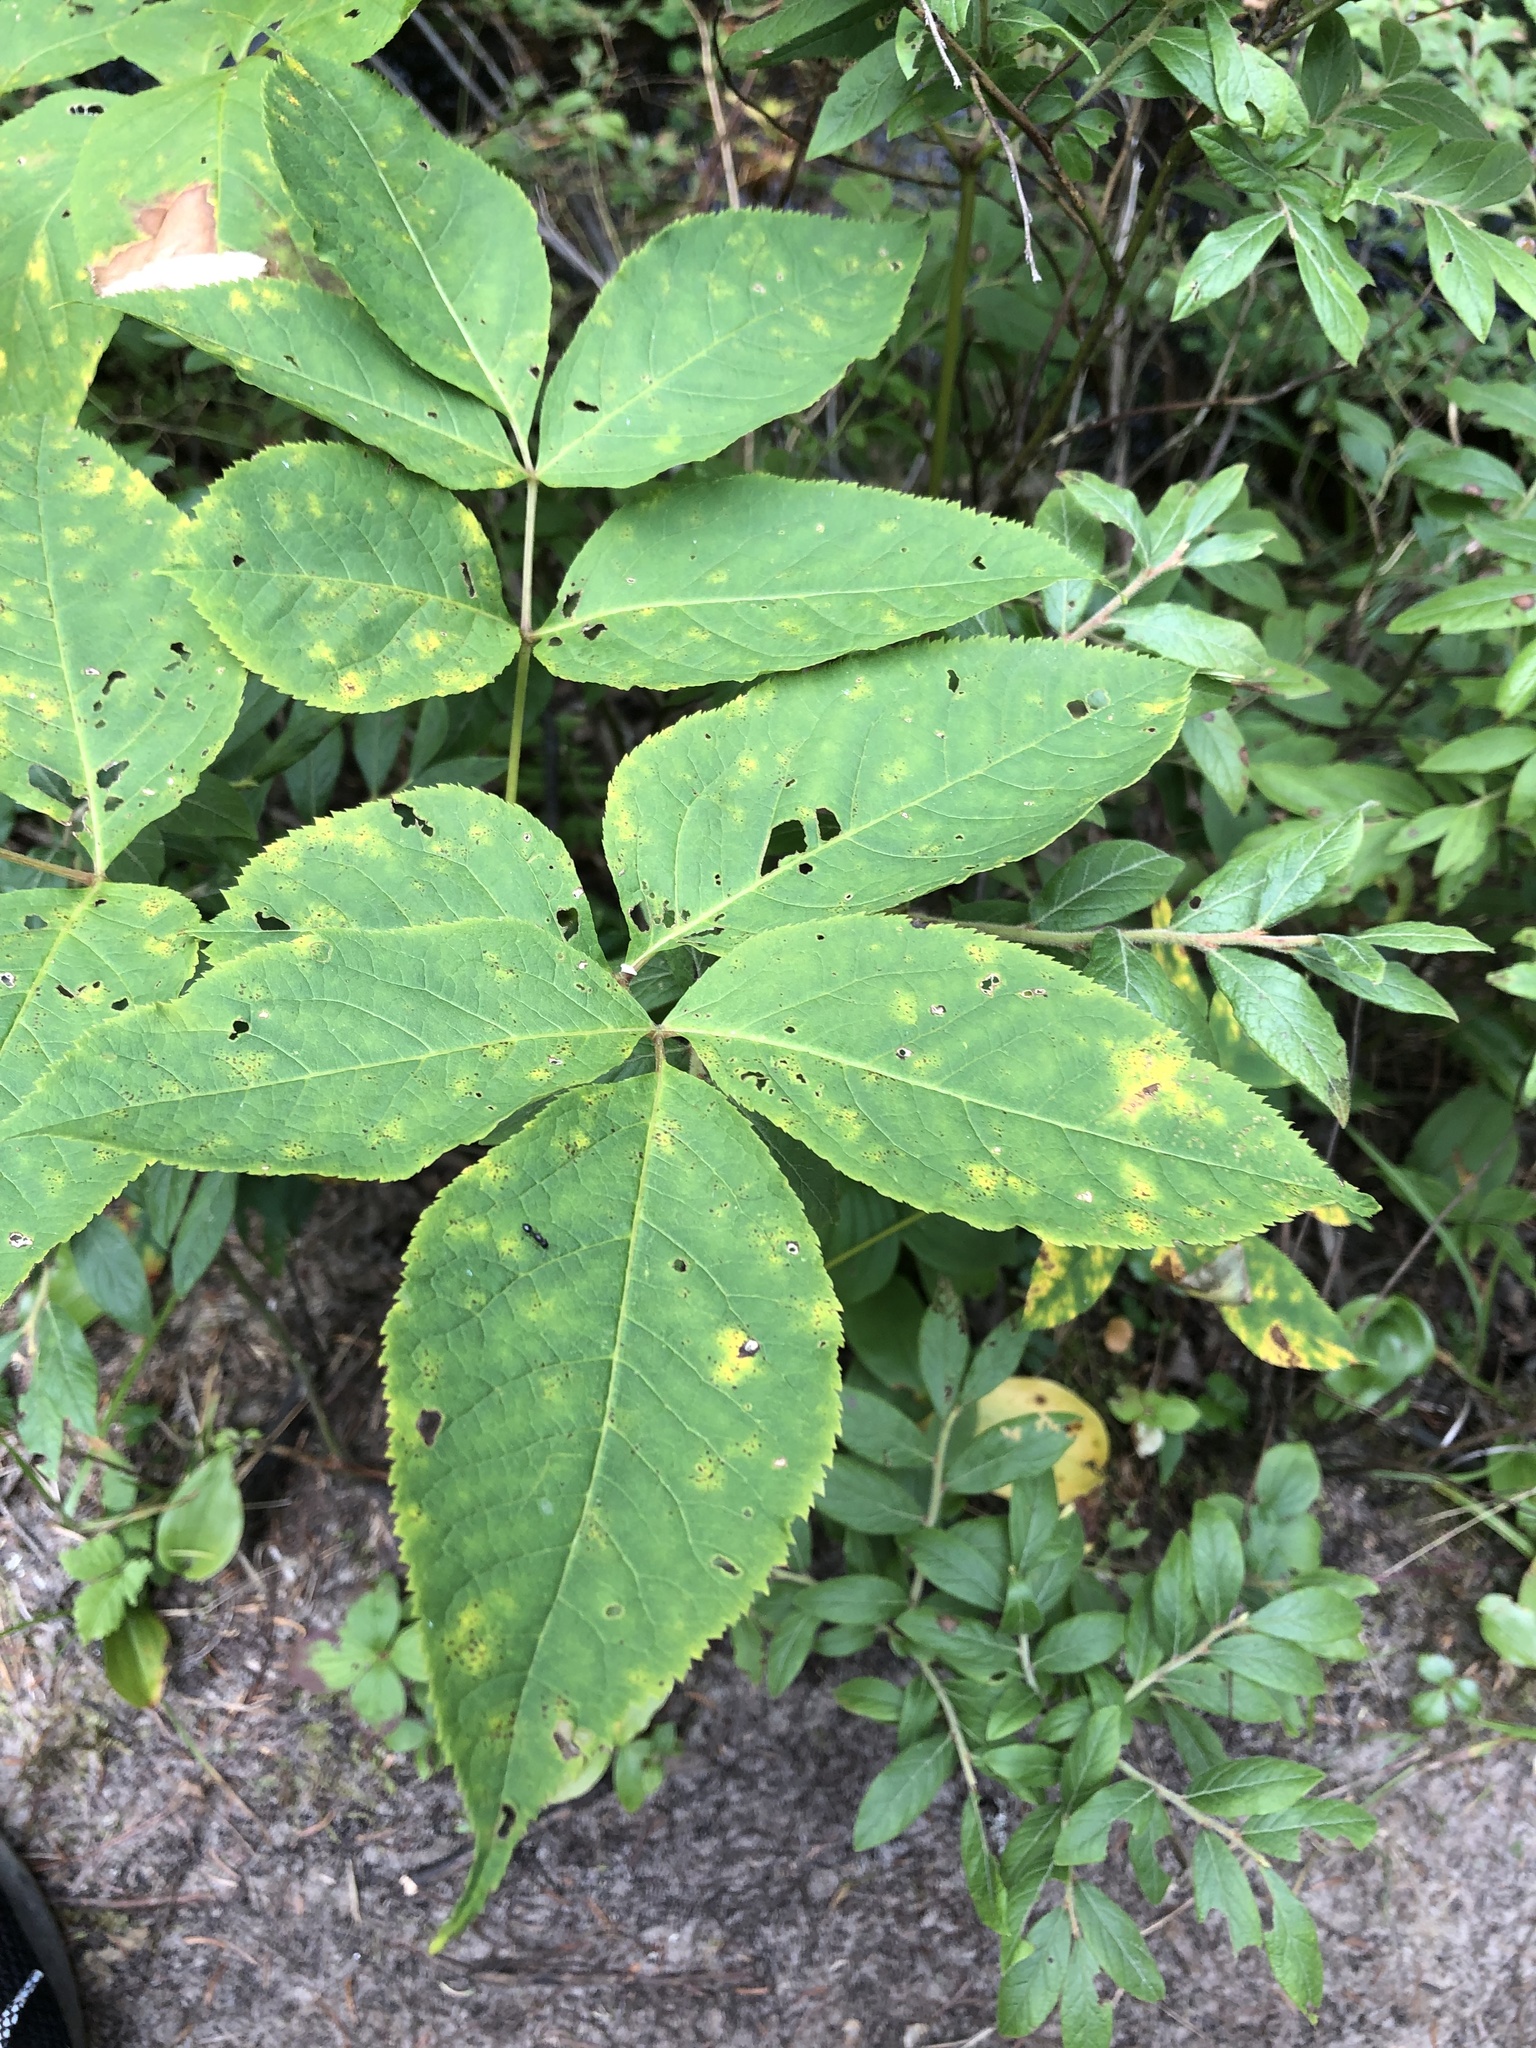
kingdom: Plantae
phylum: Tracheophyta
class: Magnoliopsida
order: Apiales
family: Araliaceae
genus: Aralia
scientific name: Aralia nudicaulis
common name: Wild sarsaparilla
